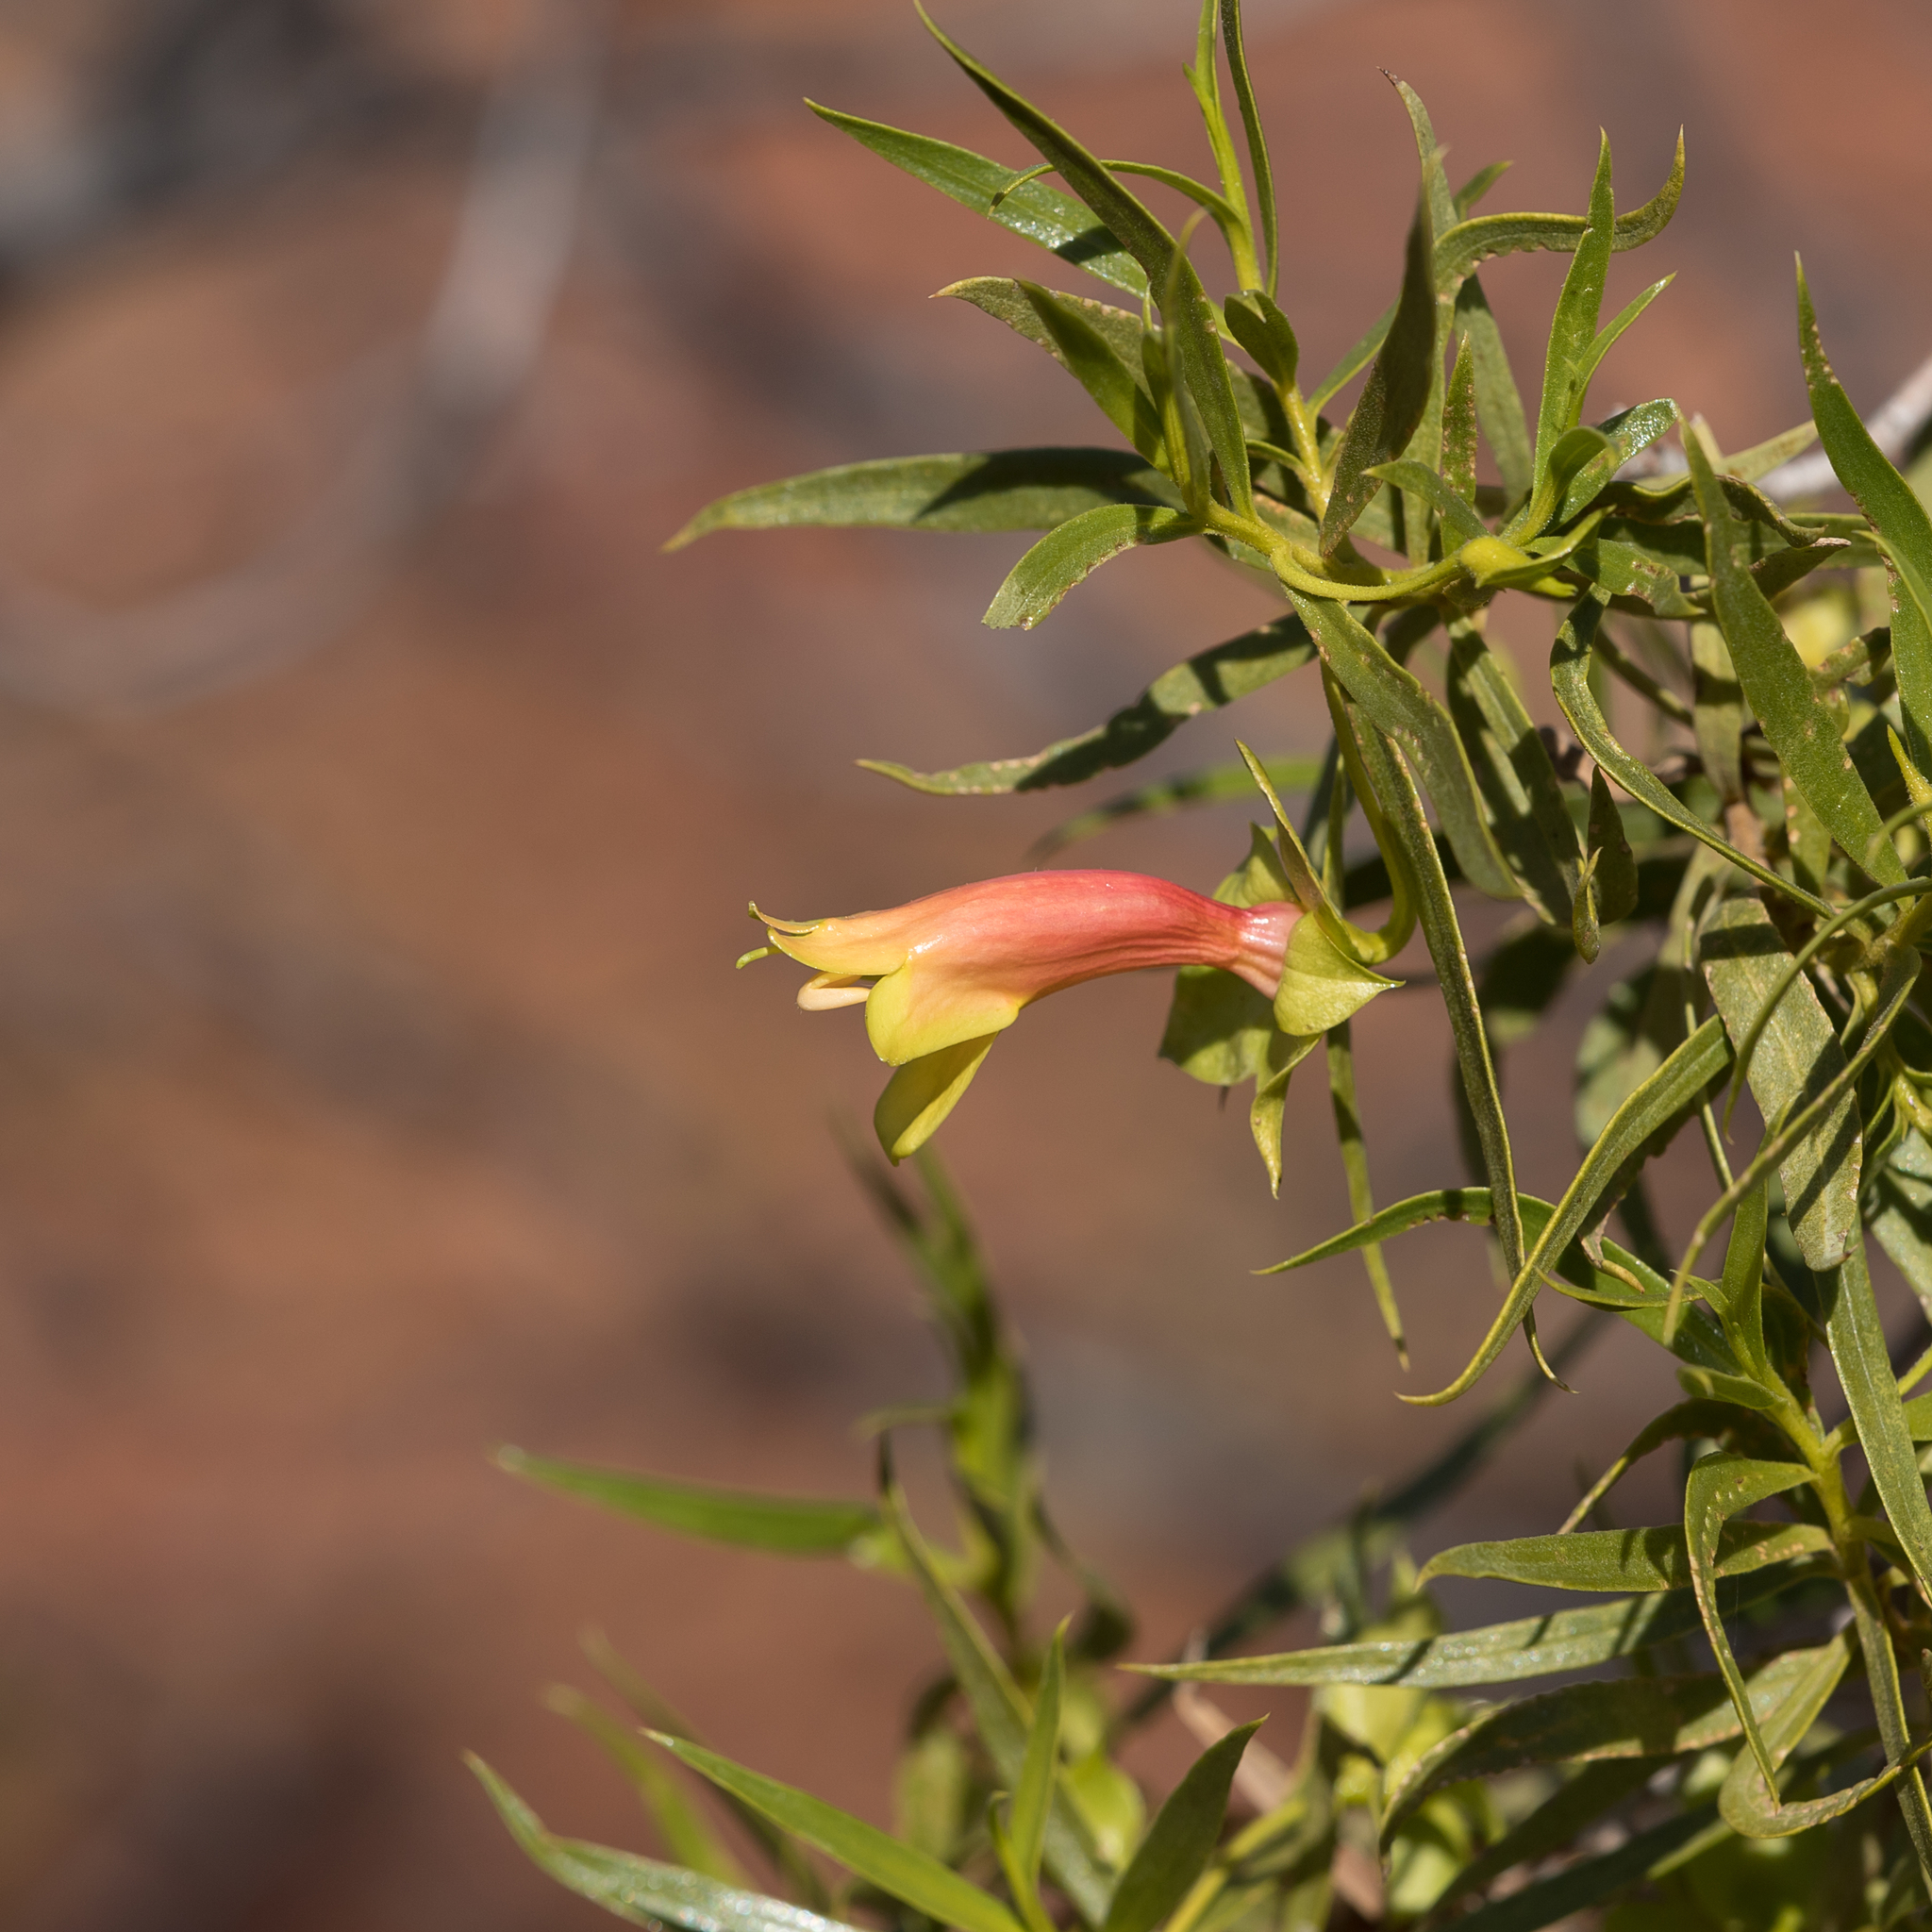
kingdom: Plantae
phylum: Tracheophyta
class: Magnoliopsida
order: Lamiales
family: Scrophulariaceae
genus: Eremophila
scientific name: Eremophila duttonii
